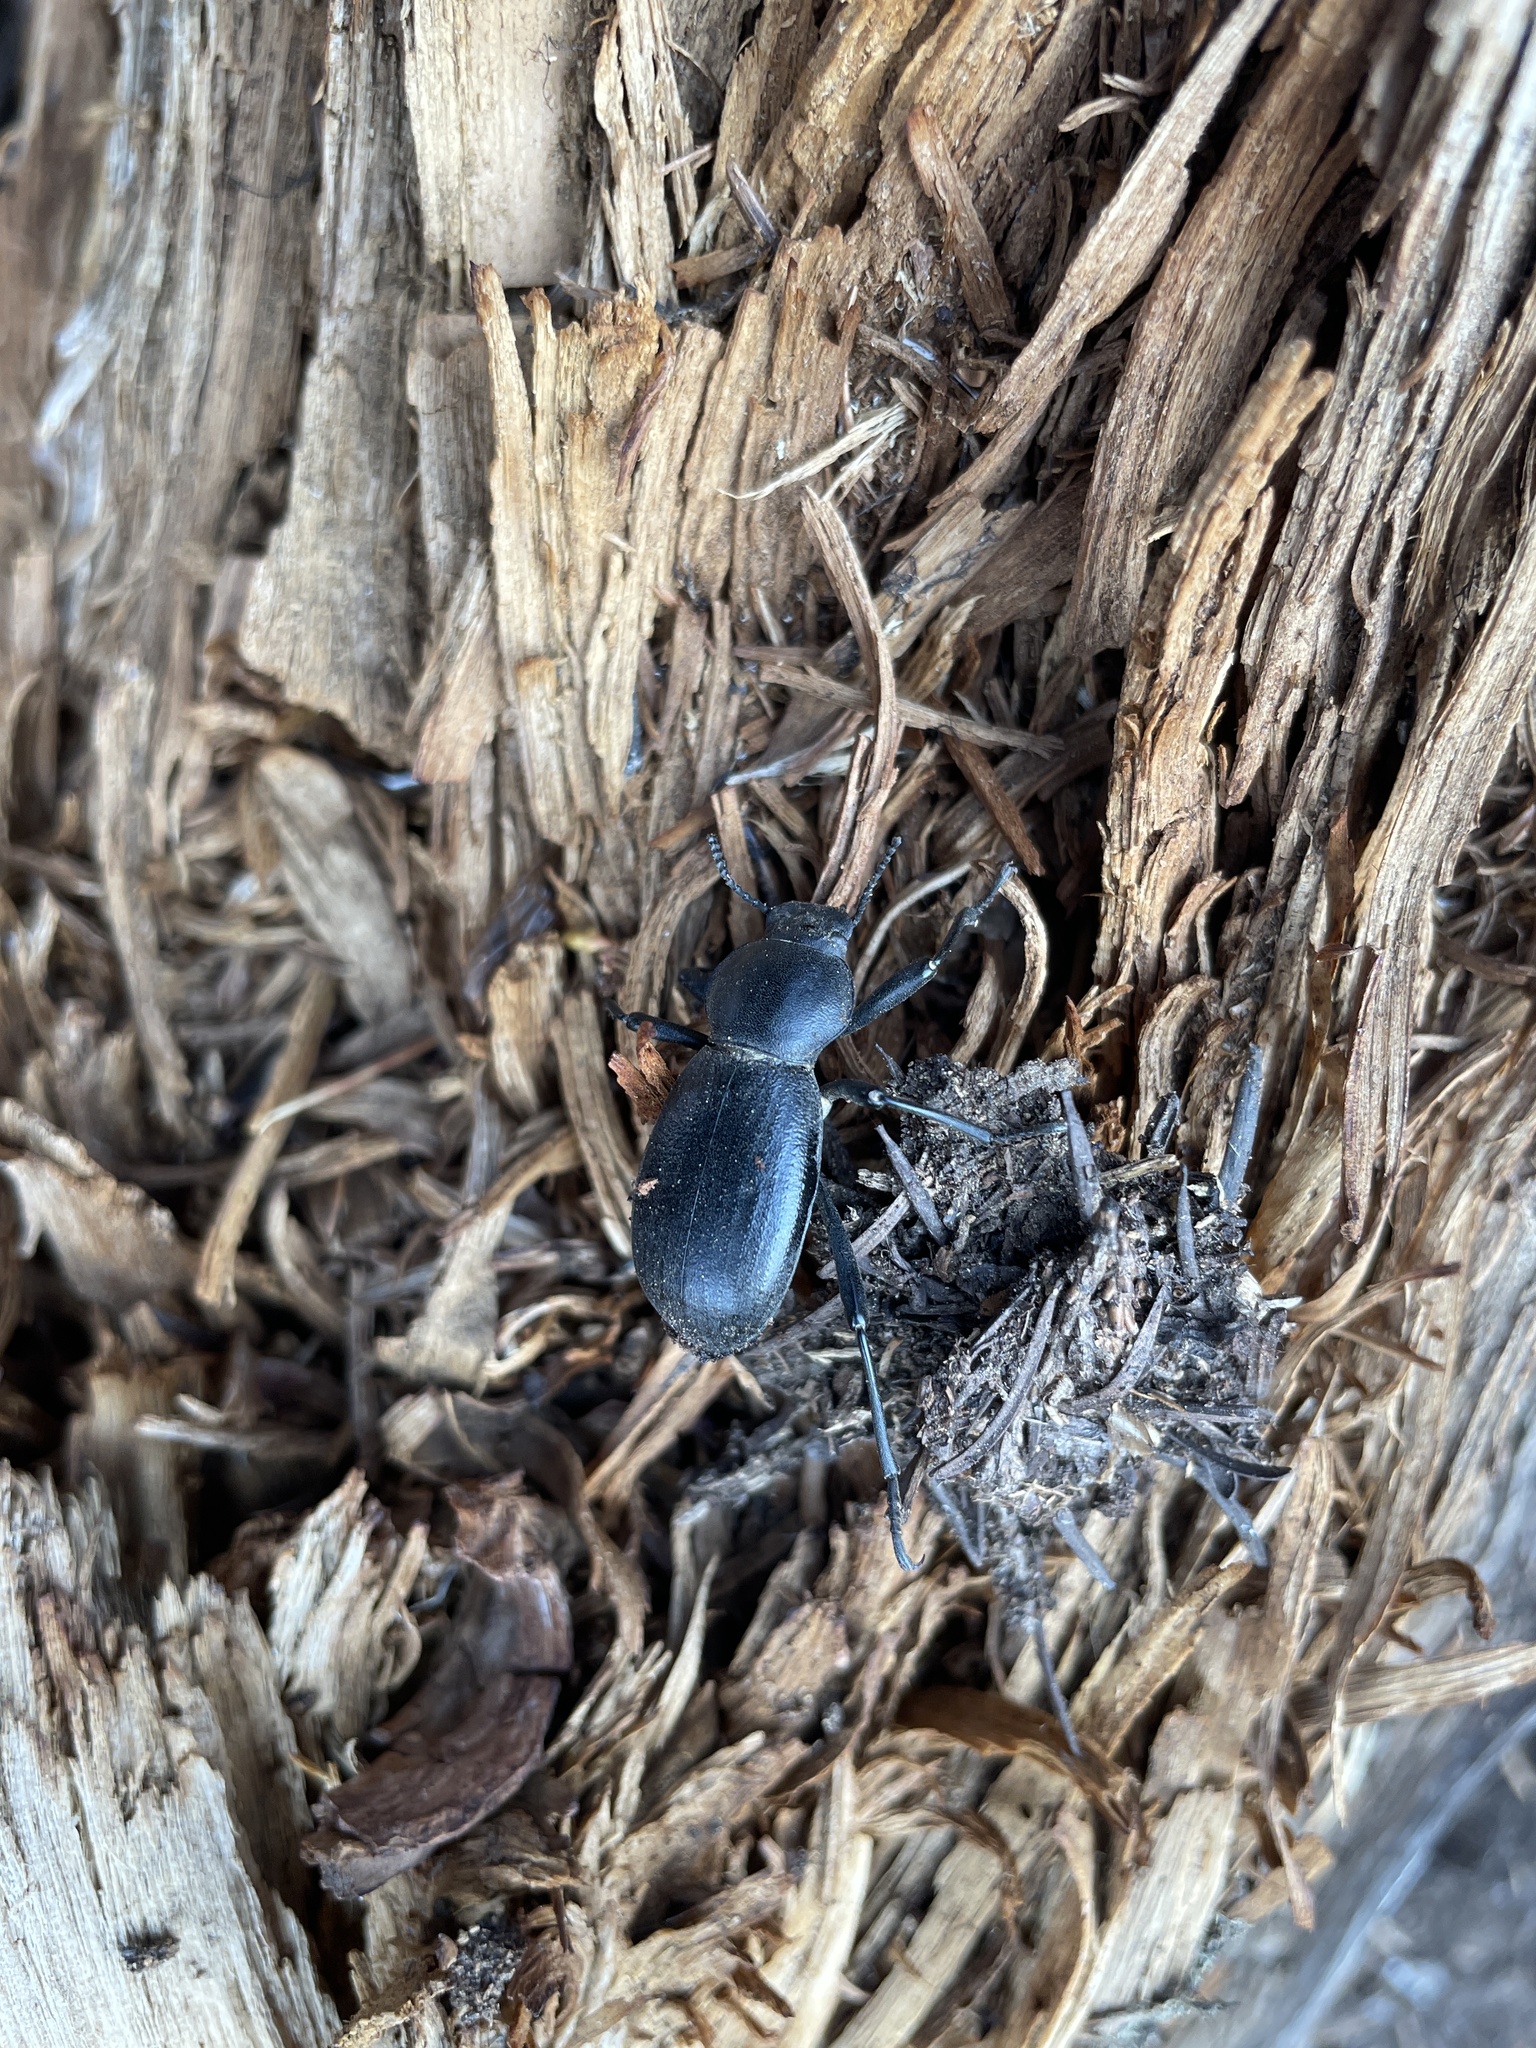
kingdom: Animalia
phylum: Arthropoda
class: Insecta
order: Coleoptera
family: Tenebrionidae
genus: Coelocnemis
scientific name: Coelocnemis dilaticollis
